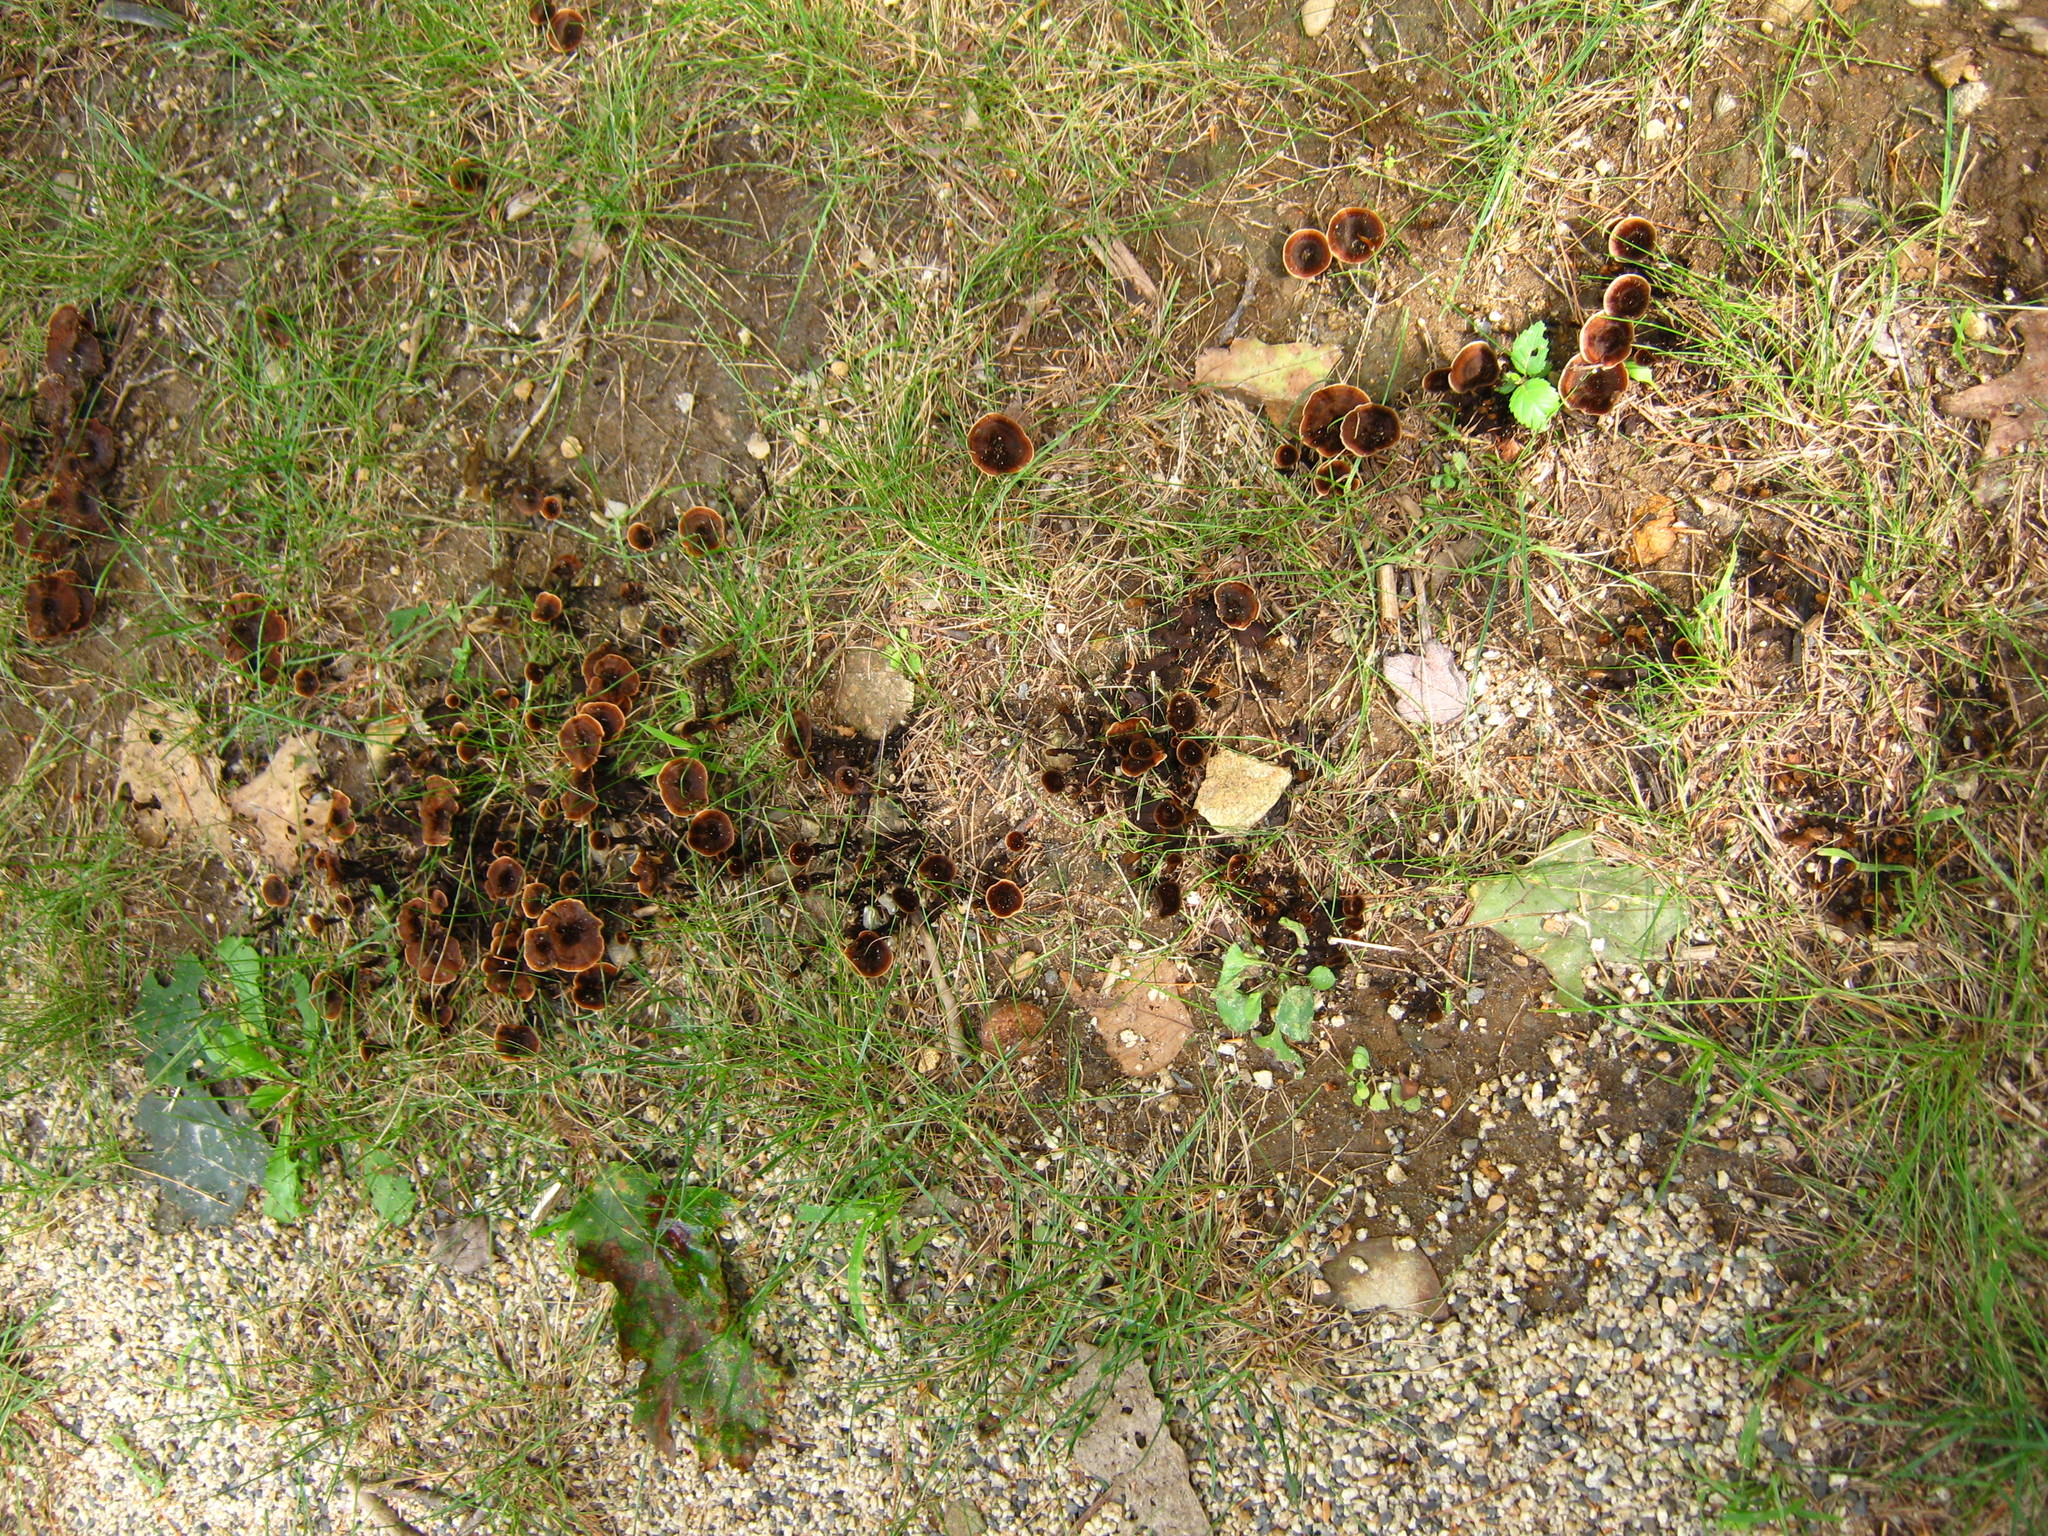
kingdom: Fungi
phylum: Basidiomycota
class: Agaricomycetes
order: Hymenochaetales
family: Hymenochaetaceae
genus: Coltricia
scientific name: Coltricia cinnamomea
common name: Shiny cinnamon polypore
